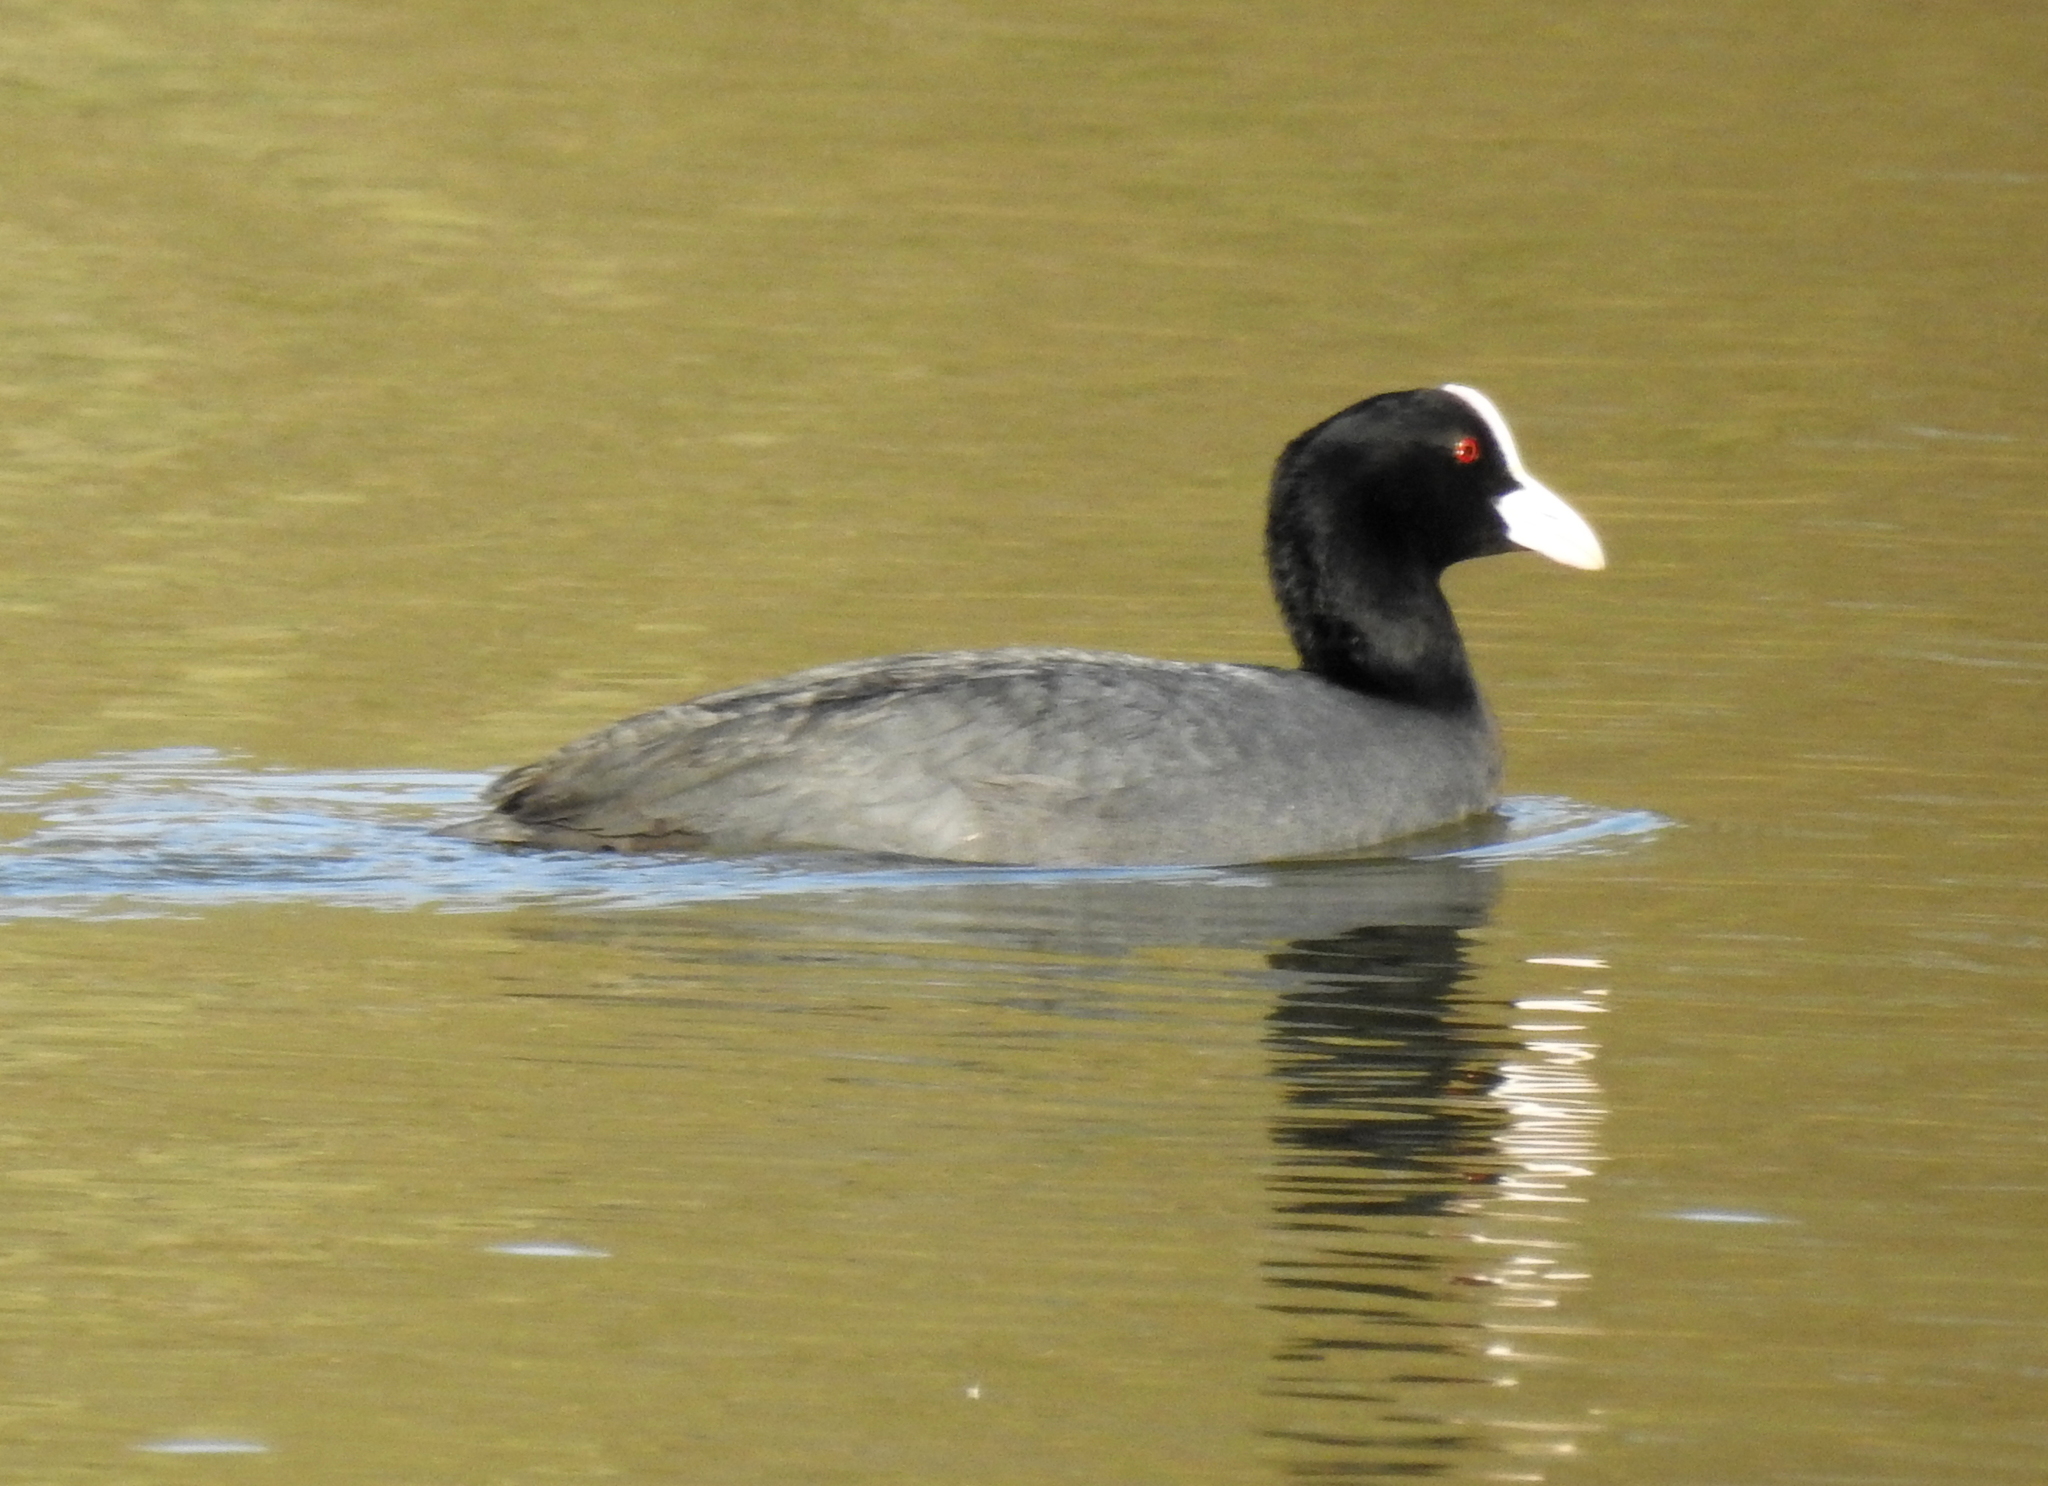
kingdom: Animalia
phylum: Chordata
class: Aves
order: Gruiformes
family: Rallidae
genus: Fulica
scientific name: Fulica atra
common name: Eurasian coot
